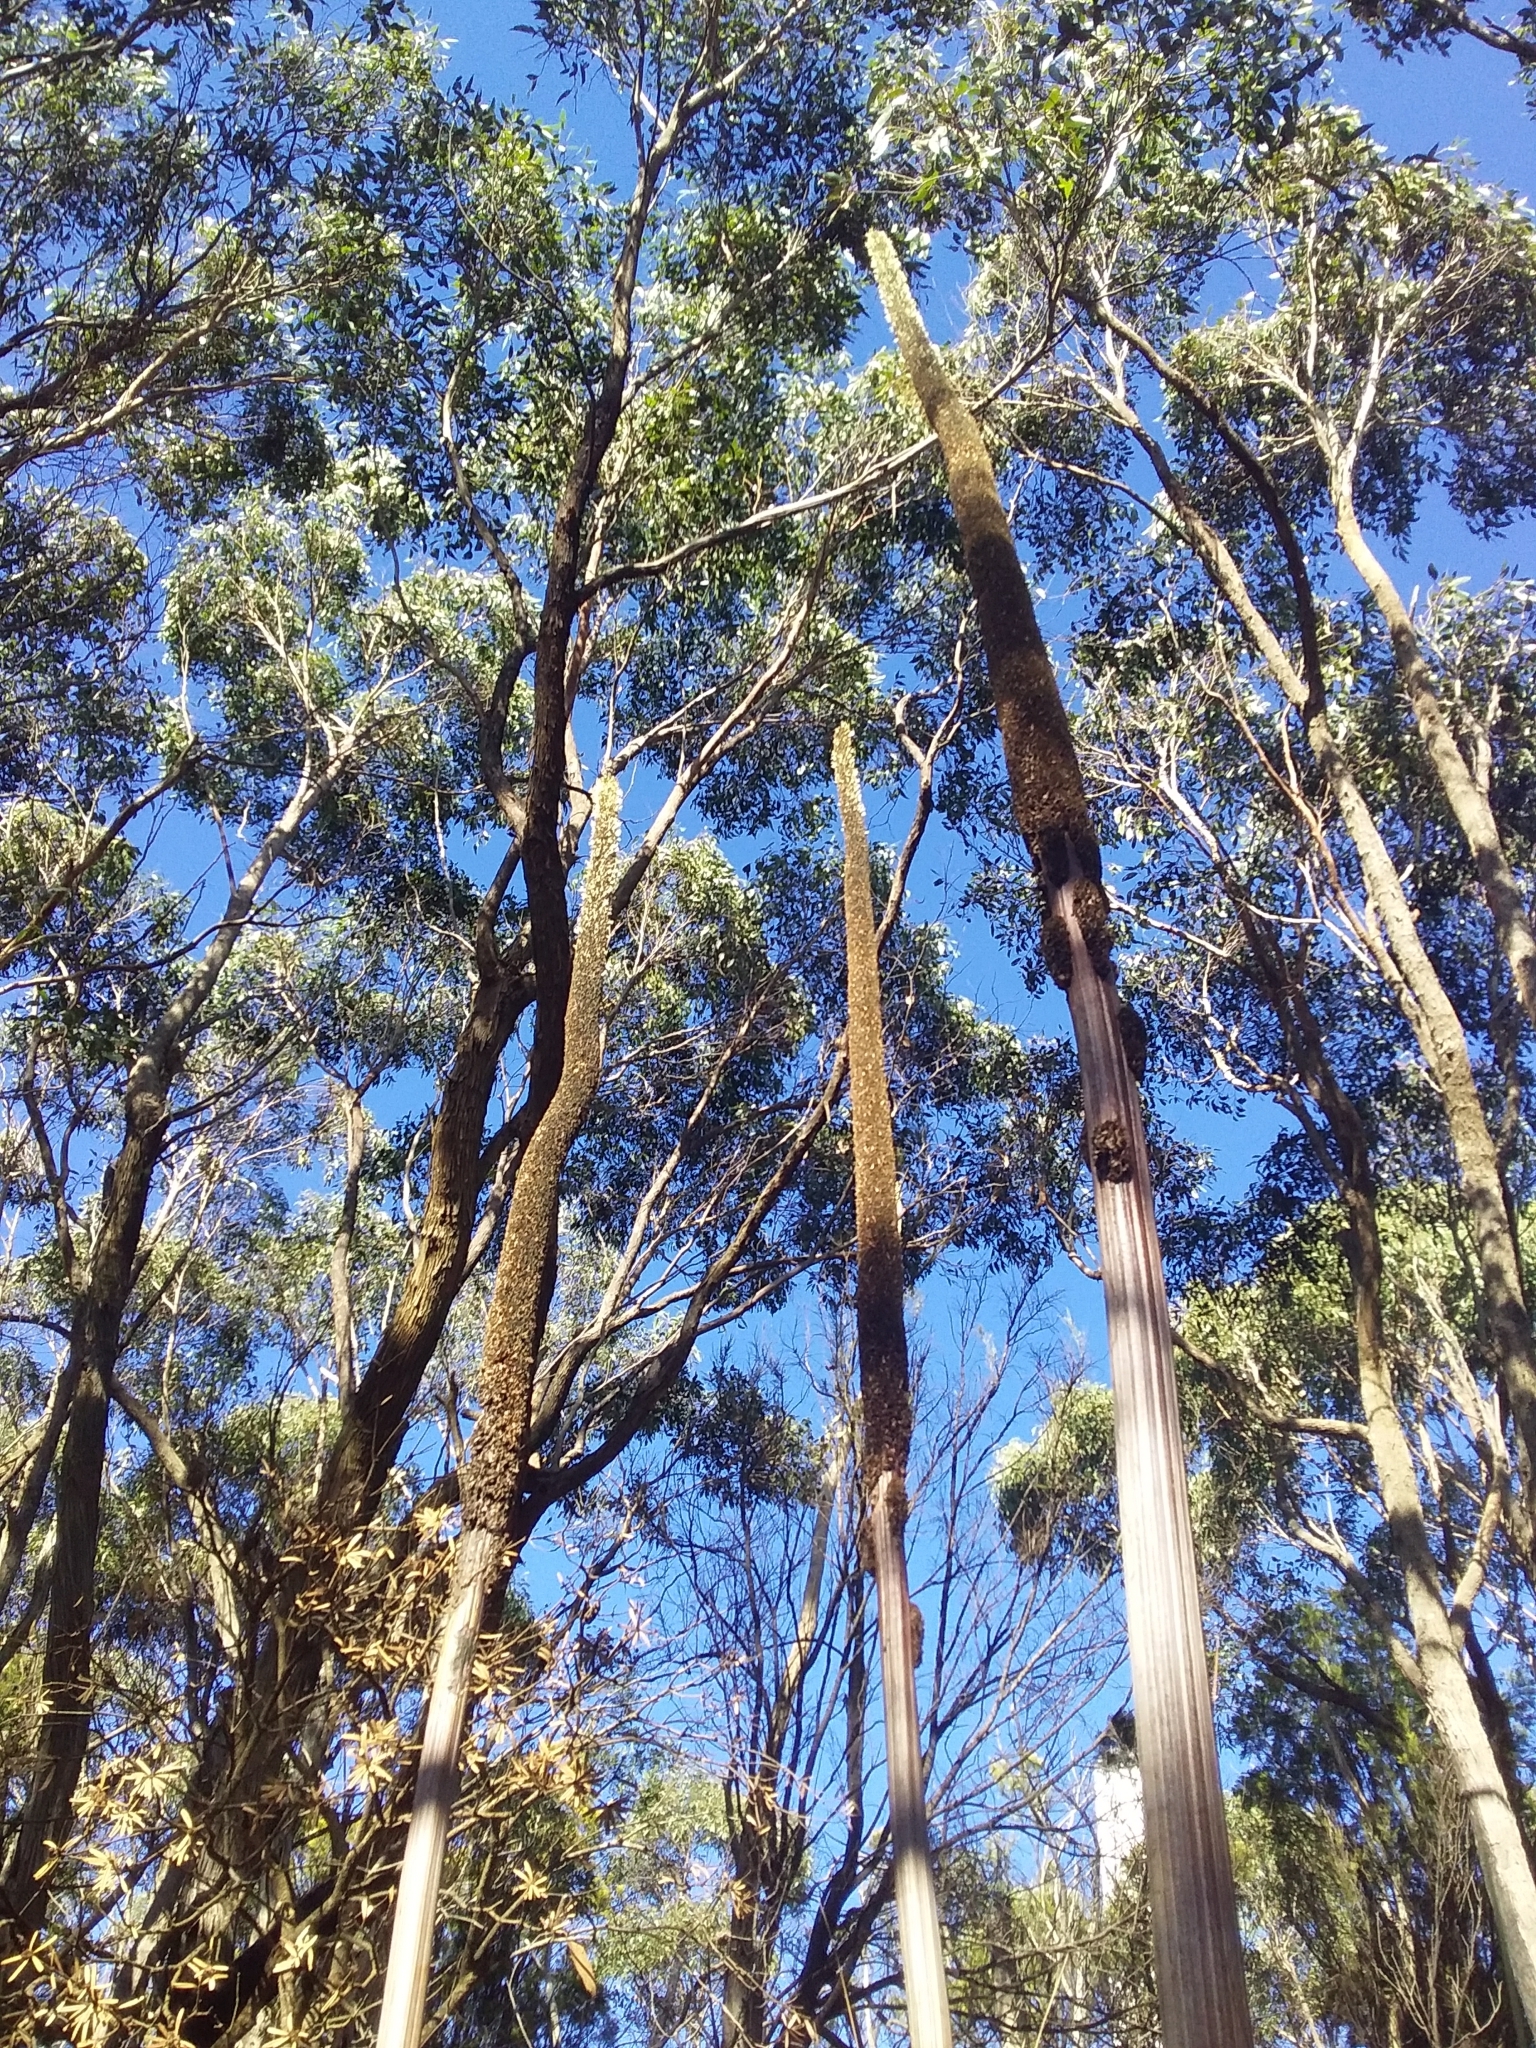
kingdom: Plantae
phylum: Tracheophyta
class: Liliopsida
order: Asparagales
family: Asphodelaceae
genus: Xanthorrhoea
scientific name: Xanthorrhoea semiplana
